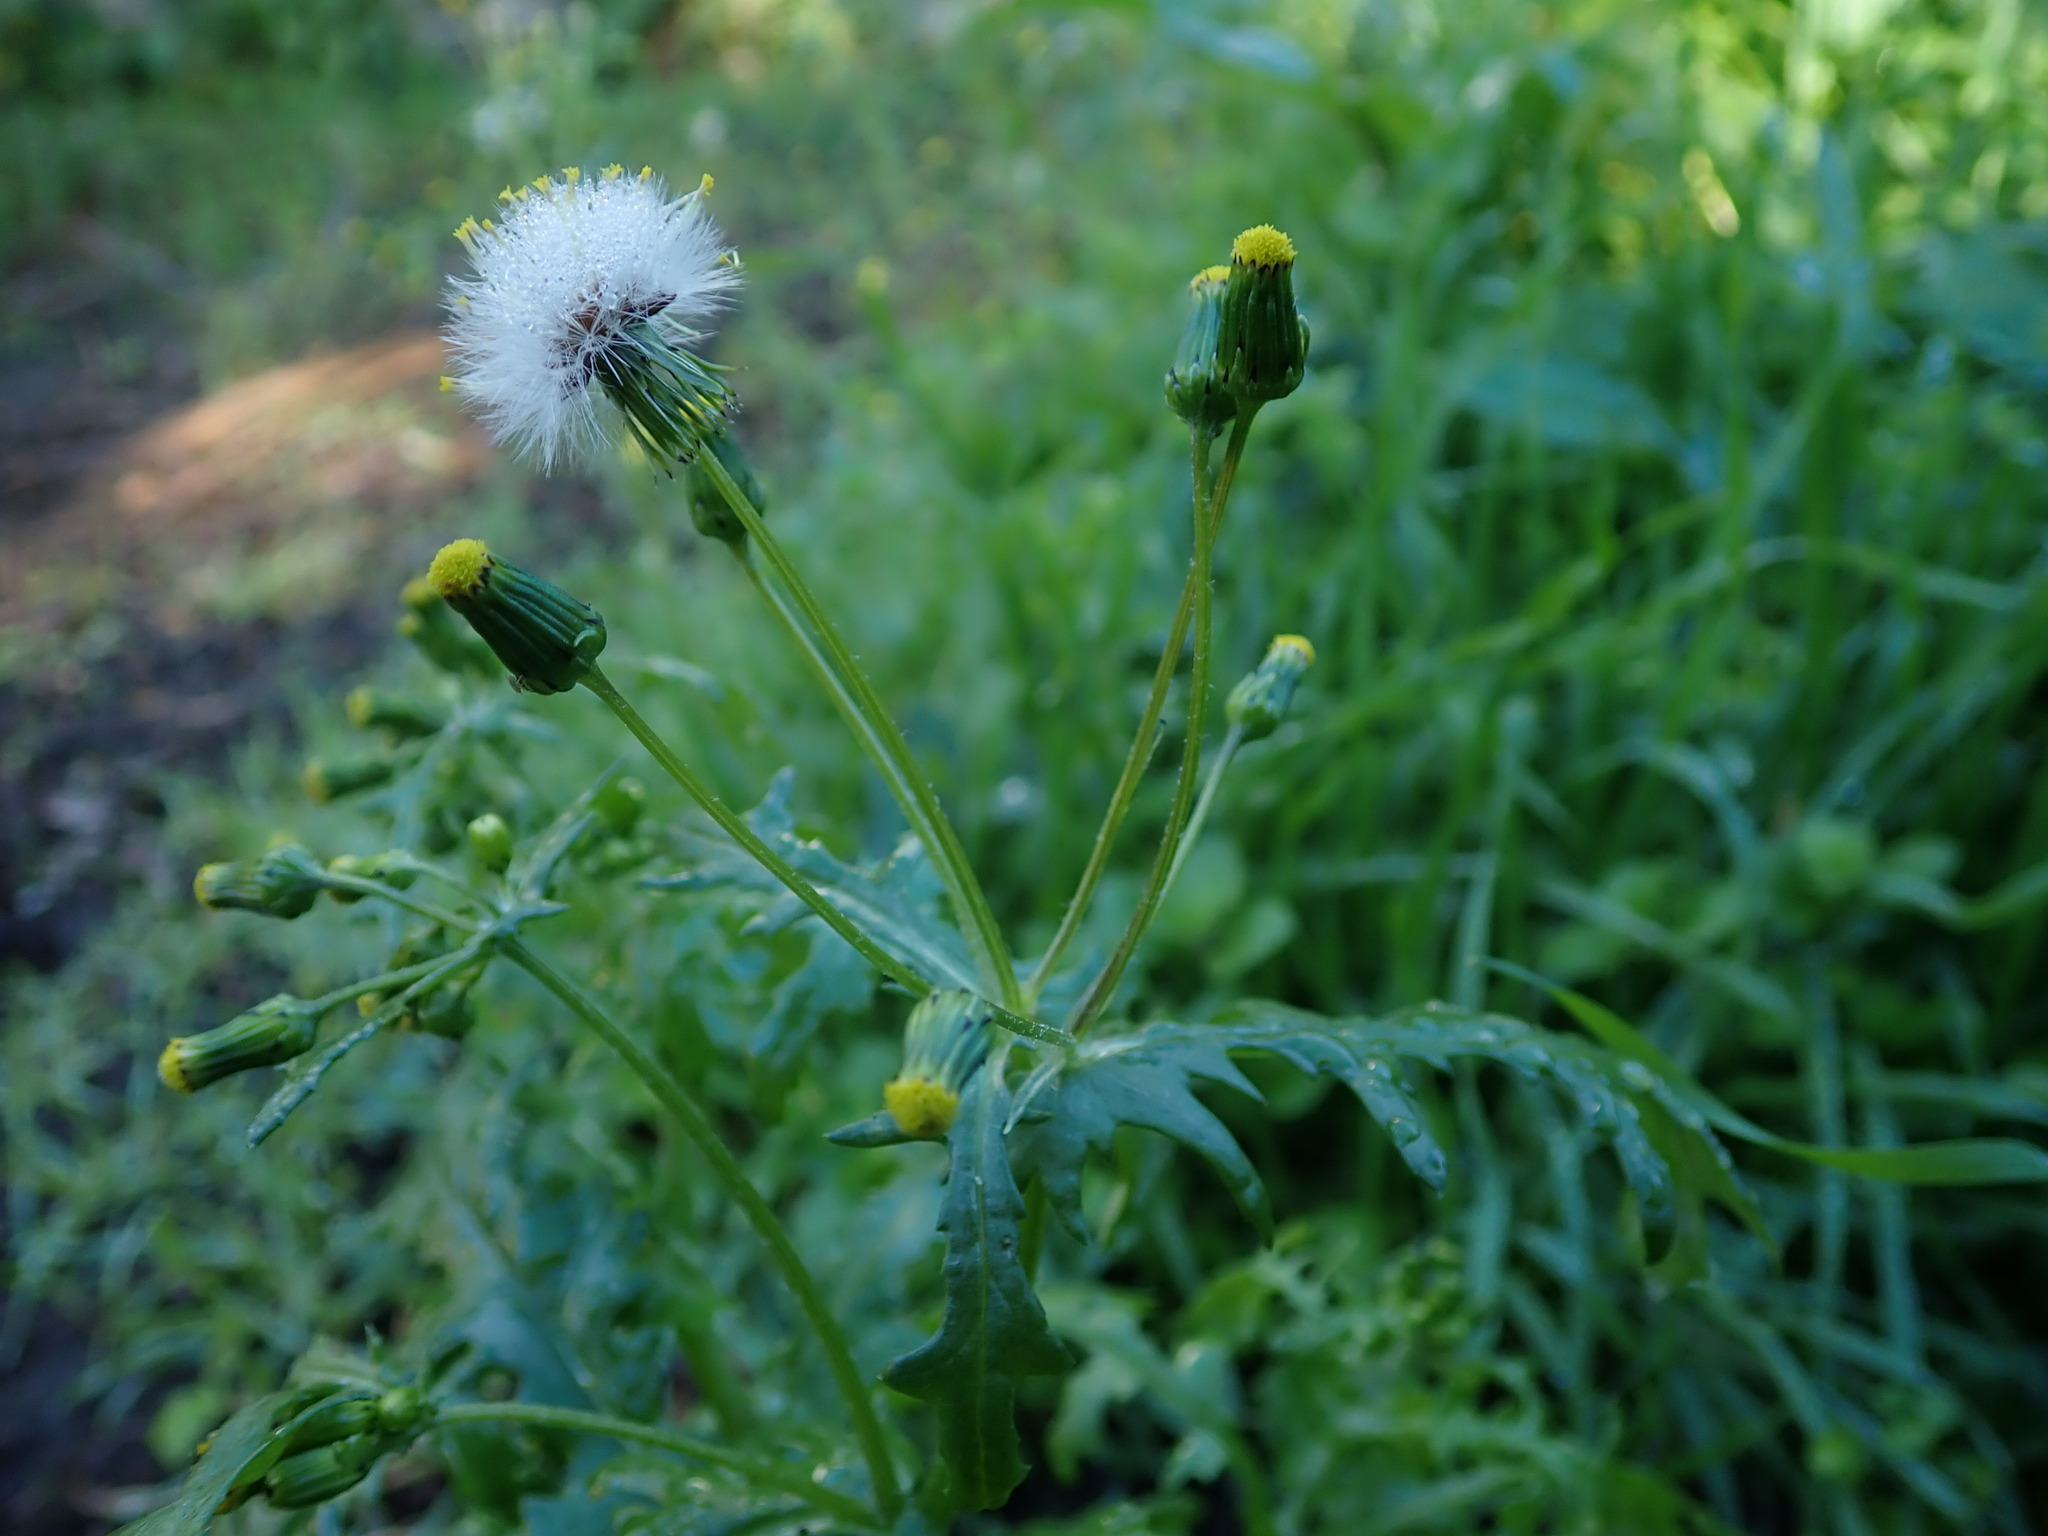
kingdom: Plantae
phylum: Tracheophyta
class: Magnoliopsida
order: Asterales
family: Asteraceae
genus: Senecio
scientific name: Senecio vulgaris
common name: Old-man-in-the-spring
